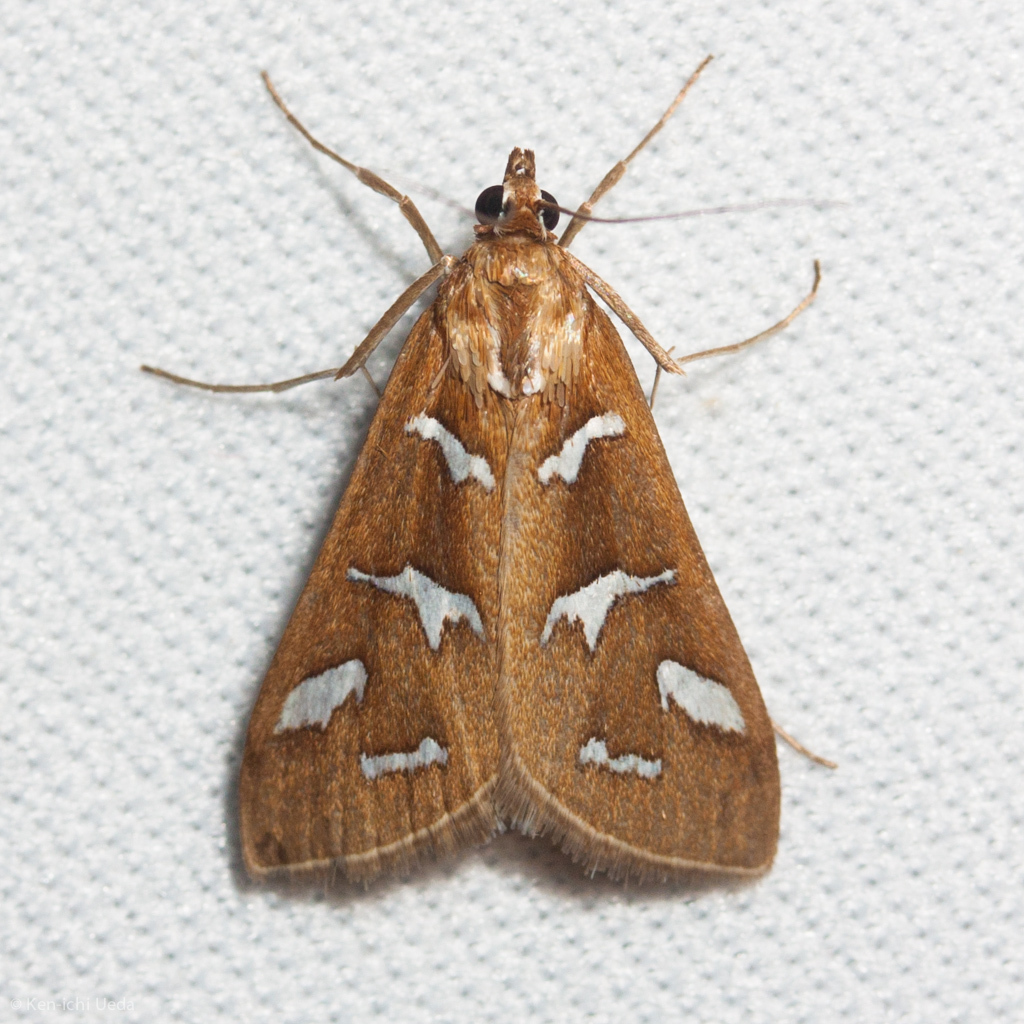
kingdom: Animalia
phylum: Arthropoda
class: Insecta
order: Lepidoptera
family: Crambidae
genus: Diastictis
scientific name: Diastictis fracturalis
